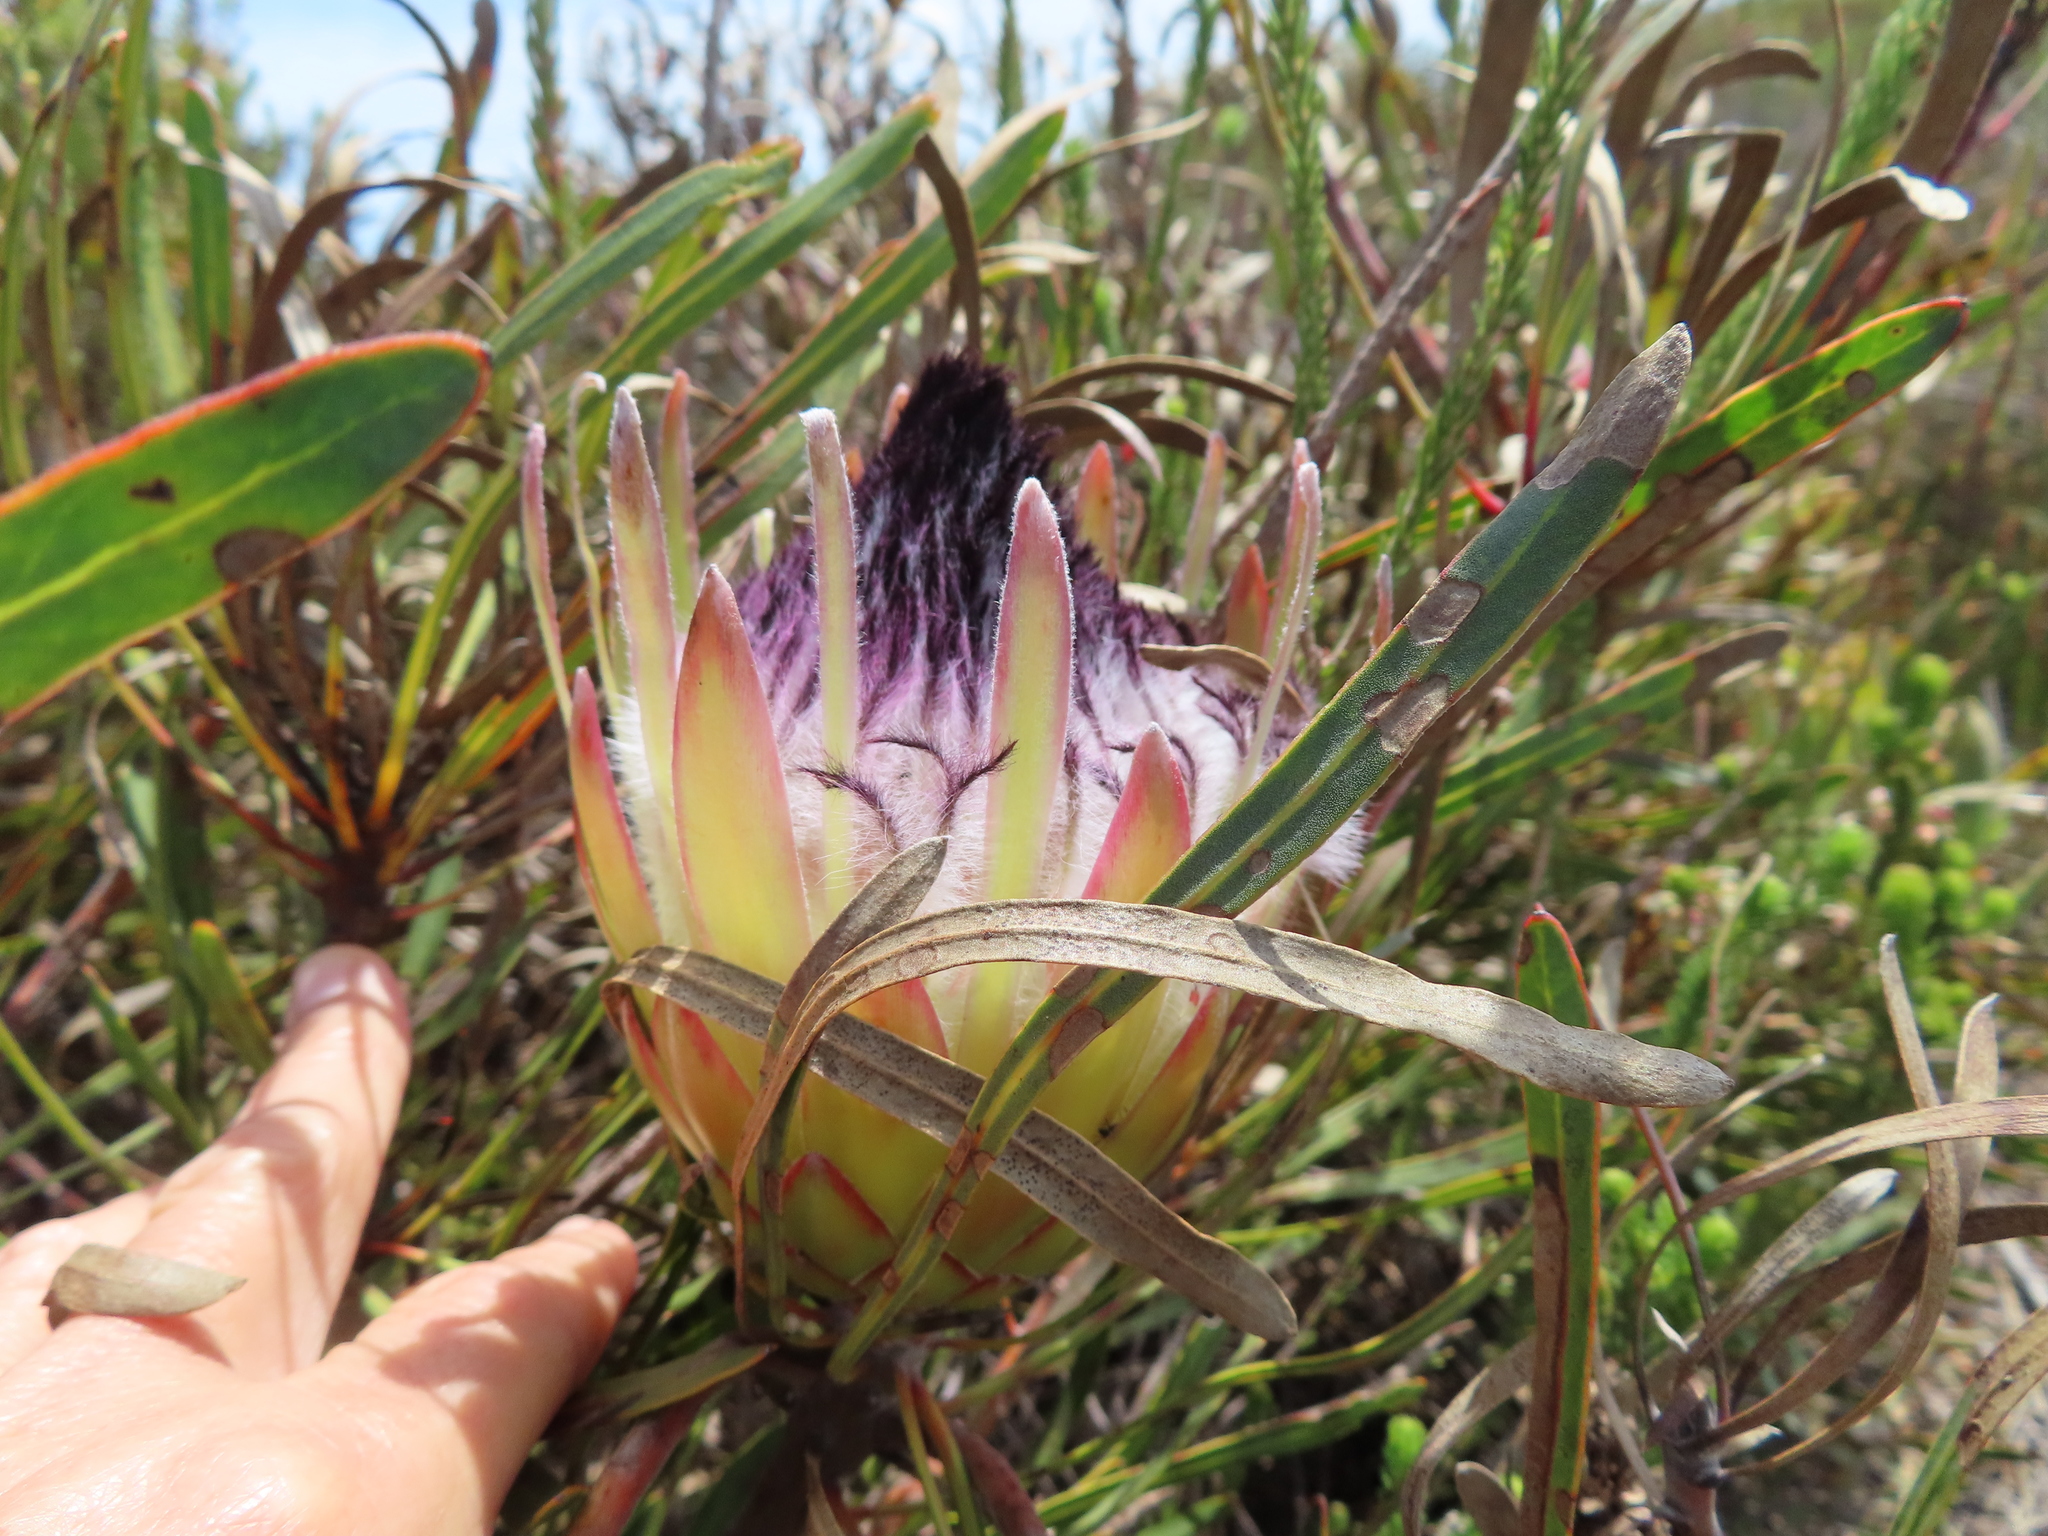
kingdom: Plantae
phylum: Tracheophyta
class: Magnoliopsida
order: Proteales
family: Proteaceae
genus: Protea
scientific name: Protea longifolia
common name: Long-leaf sugarbush
